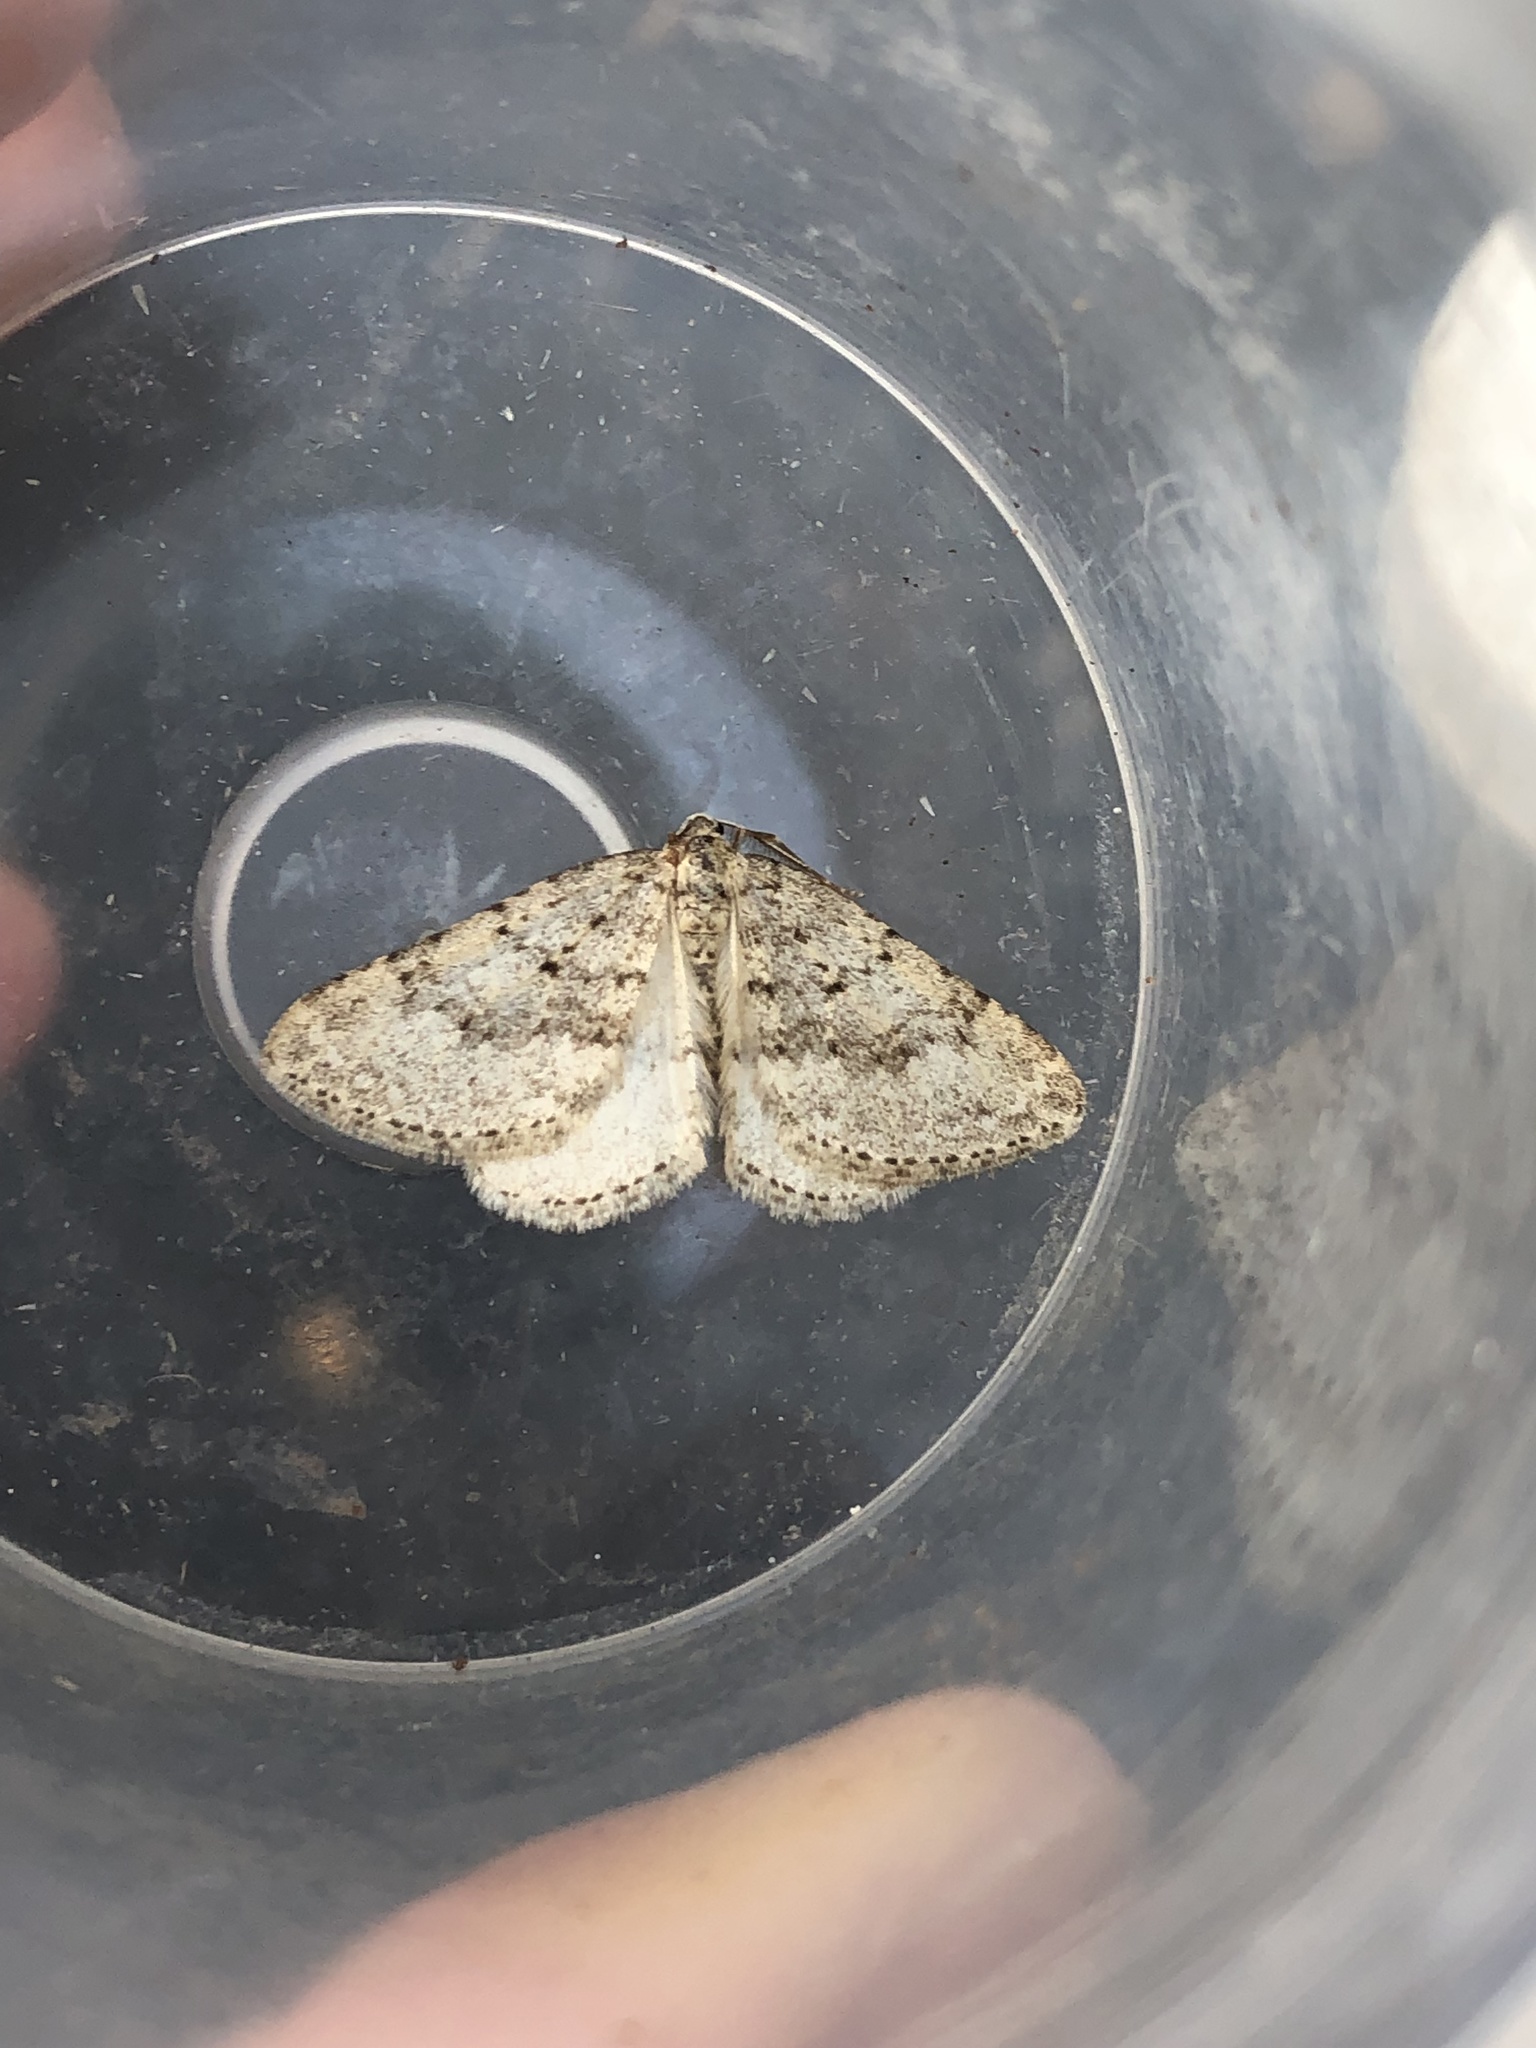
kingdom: Animalia
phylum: Arthropoda
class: Insecta
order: Lepidoptera
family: Geometridae
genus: Colostygia
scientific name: Colostygia multistrigaria
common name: Mottled grey
